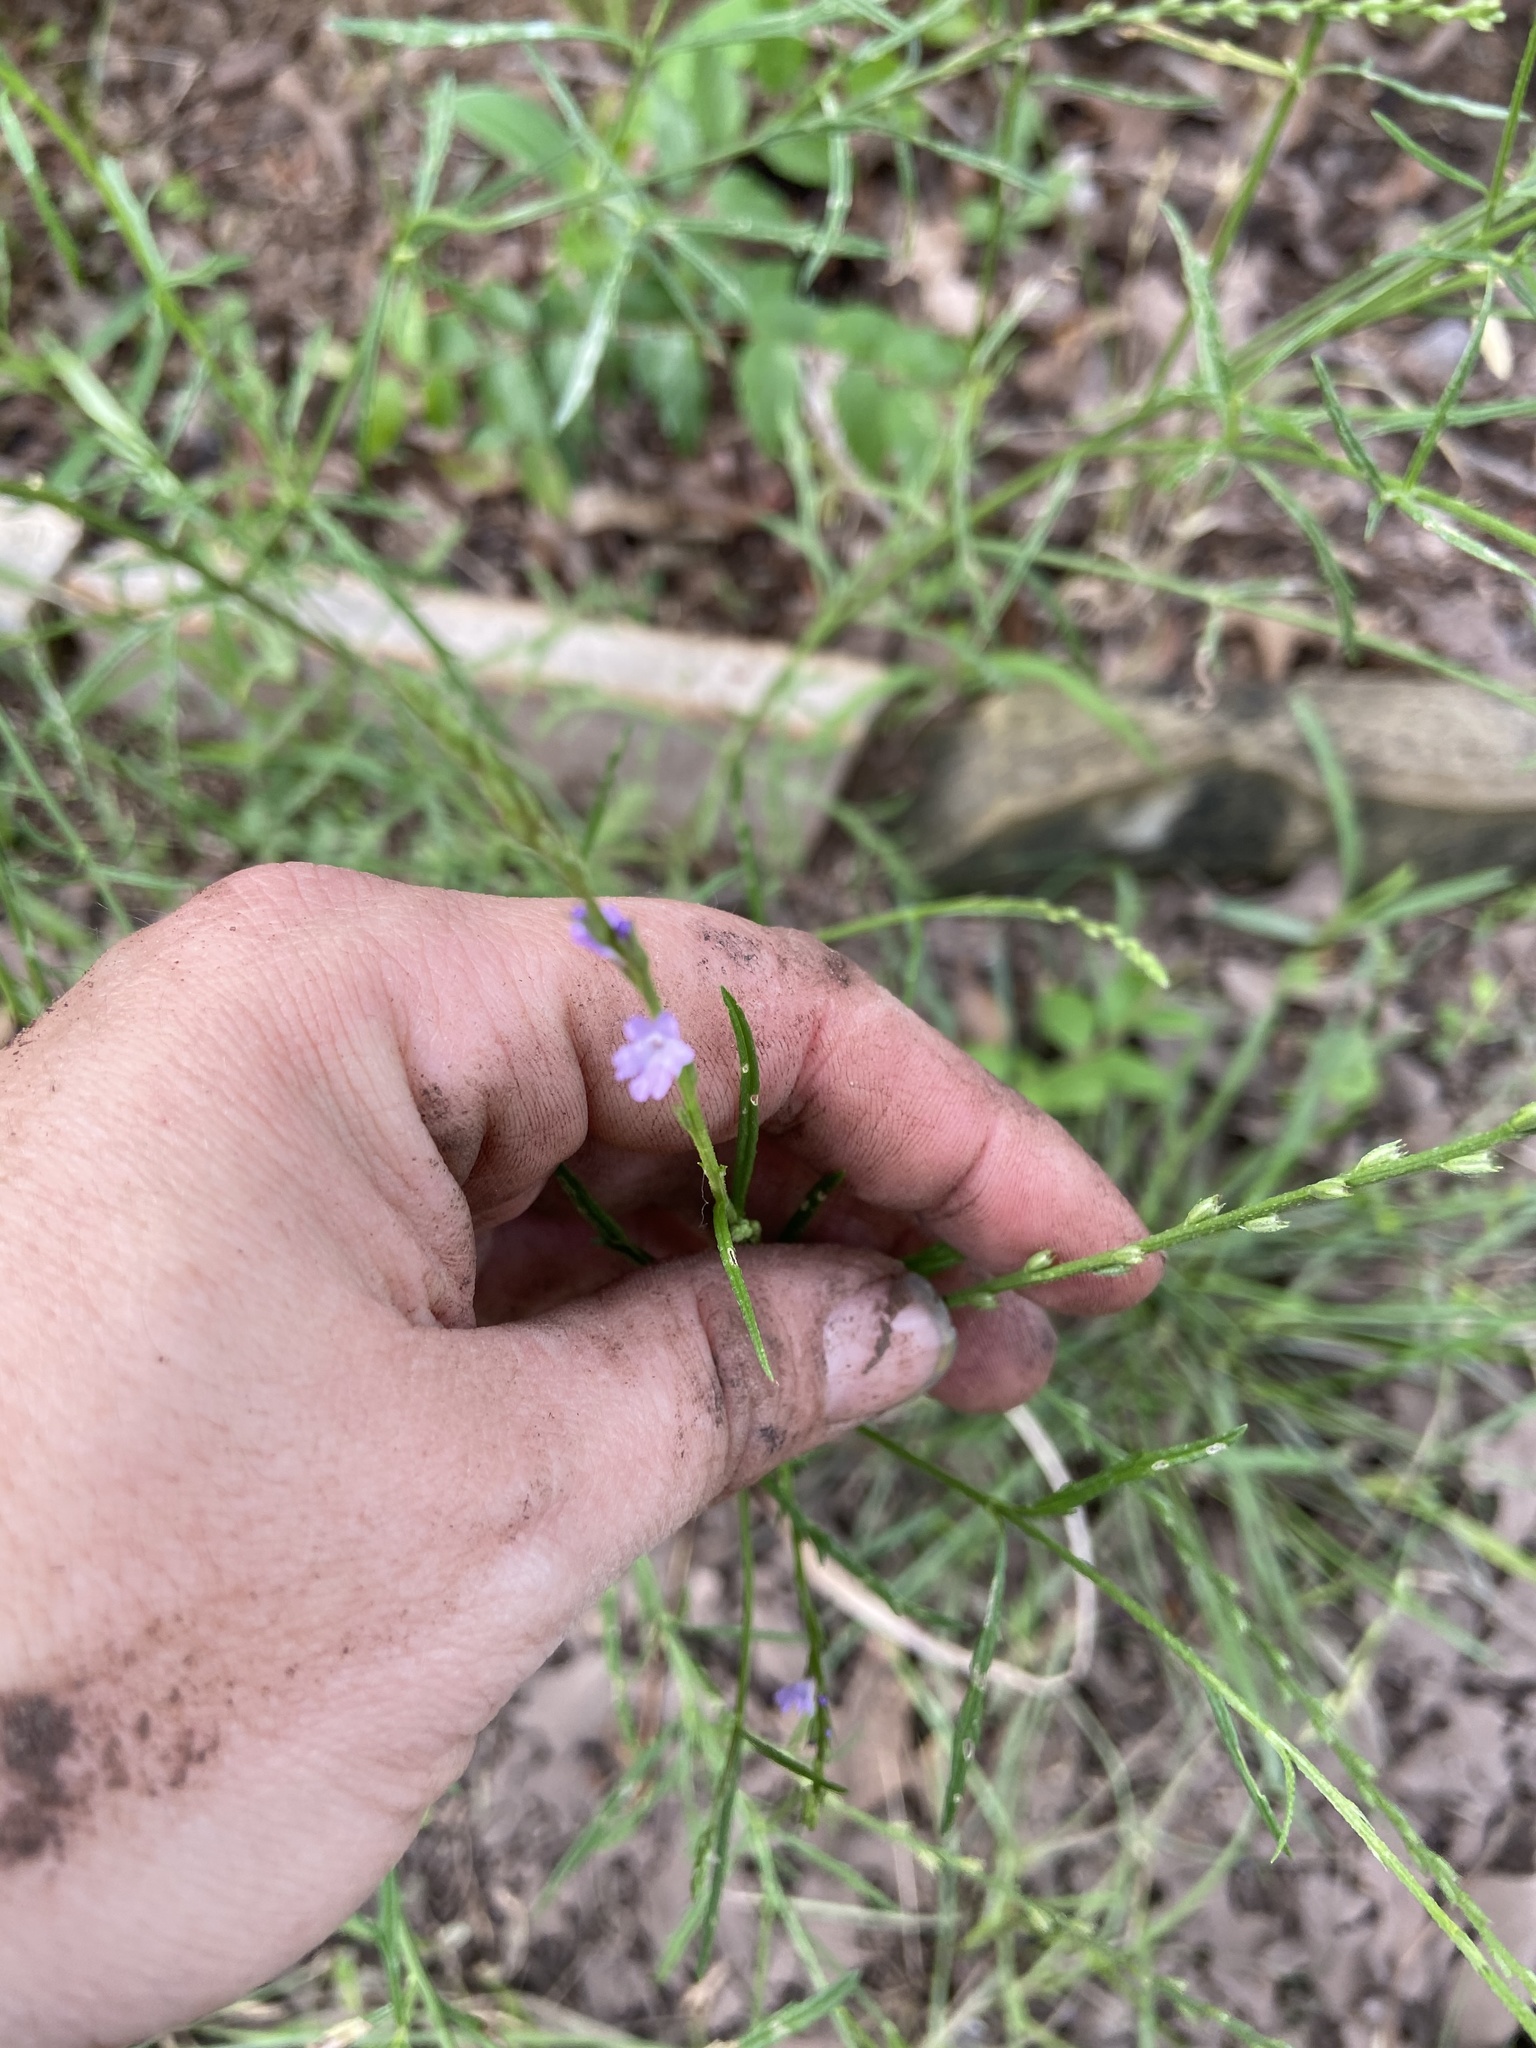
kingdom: Plantae
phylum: Tracheophyta
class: Magnoliopsida
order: Lamiales
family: Verbenaceae
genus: Verbena
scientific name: Verbena halei
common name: Texas vervain
